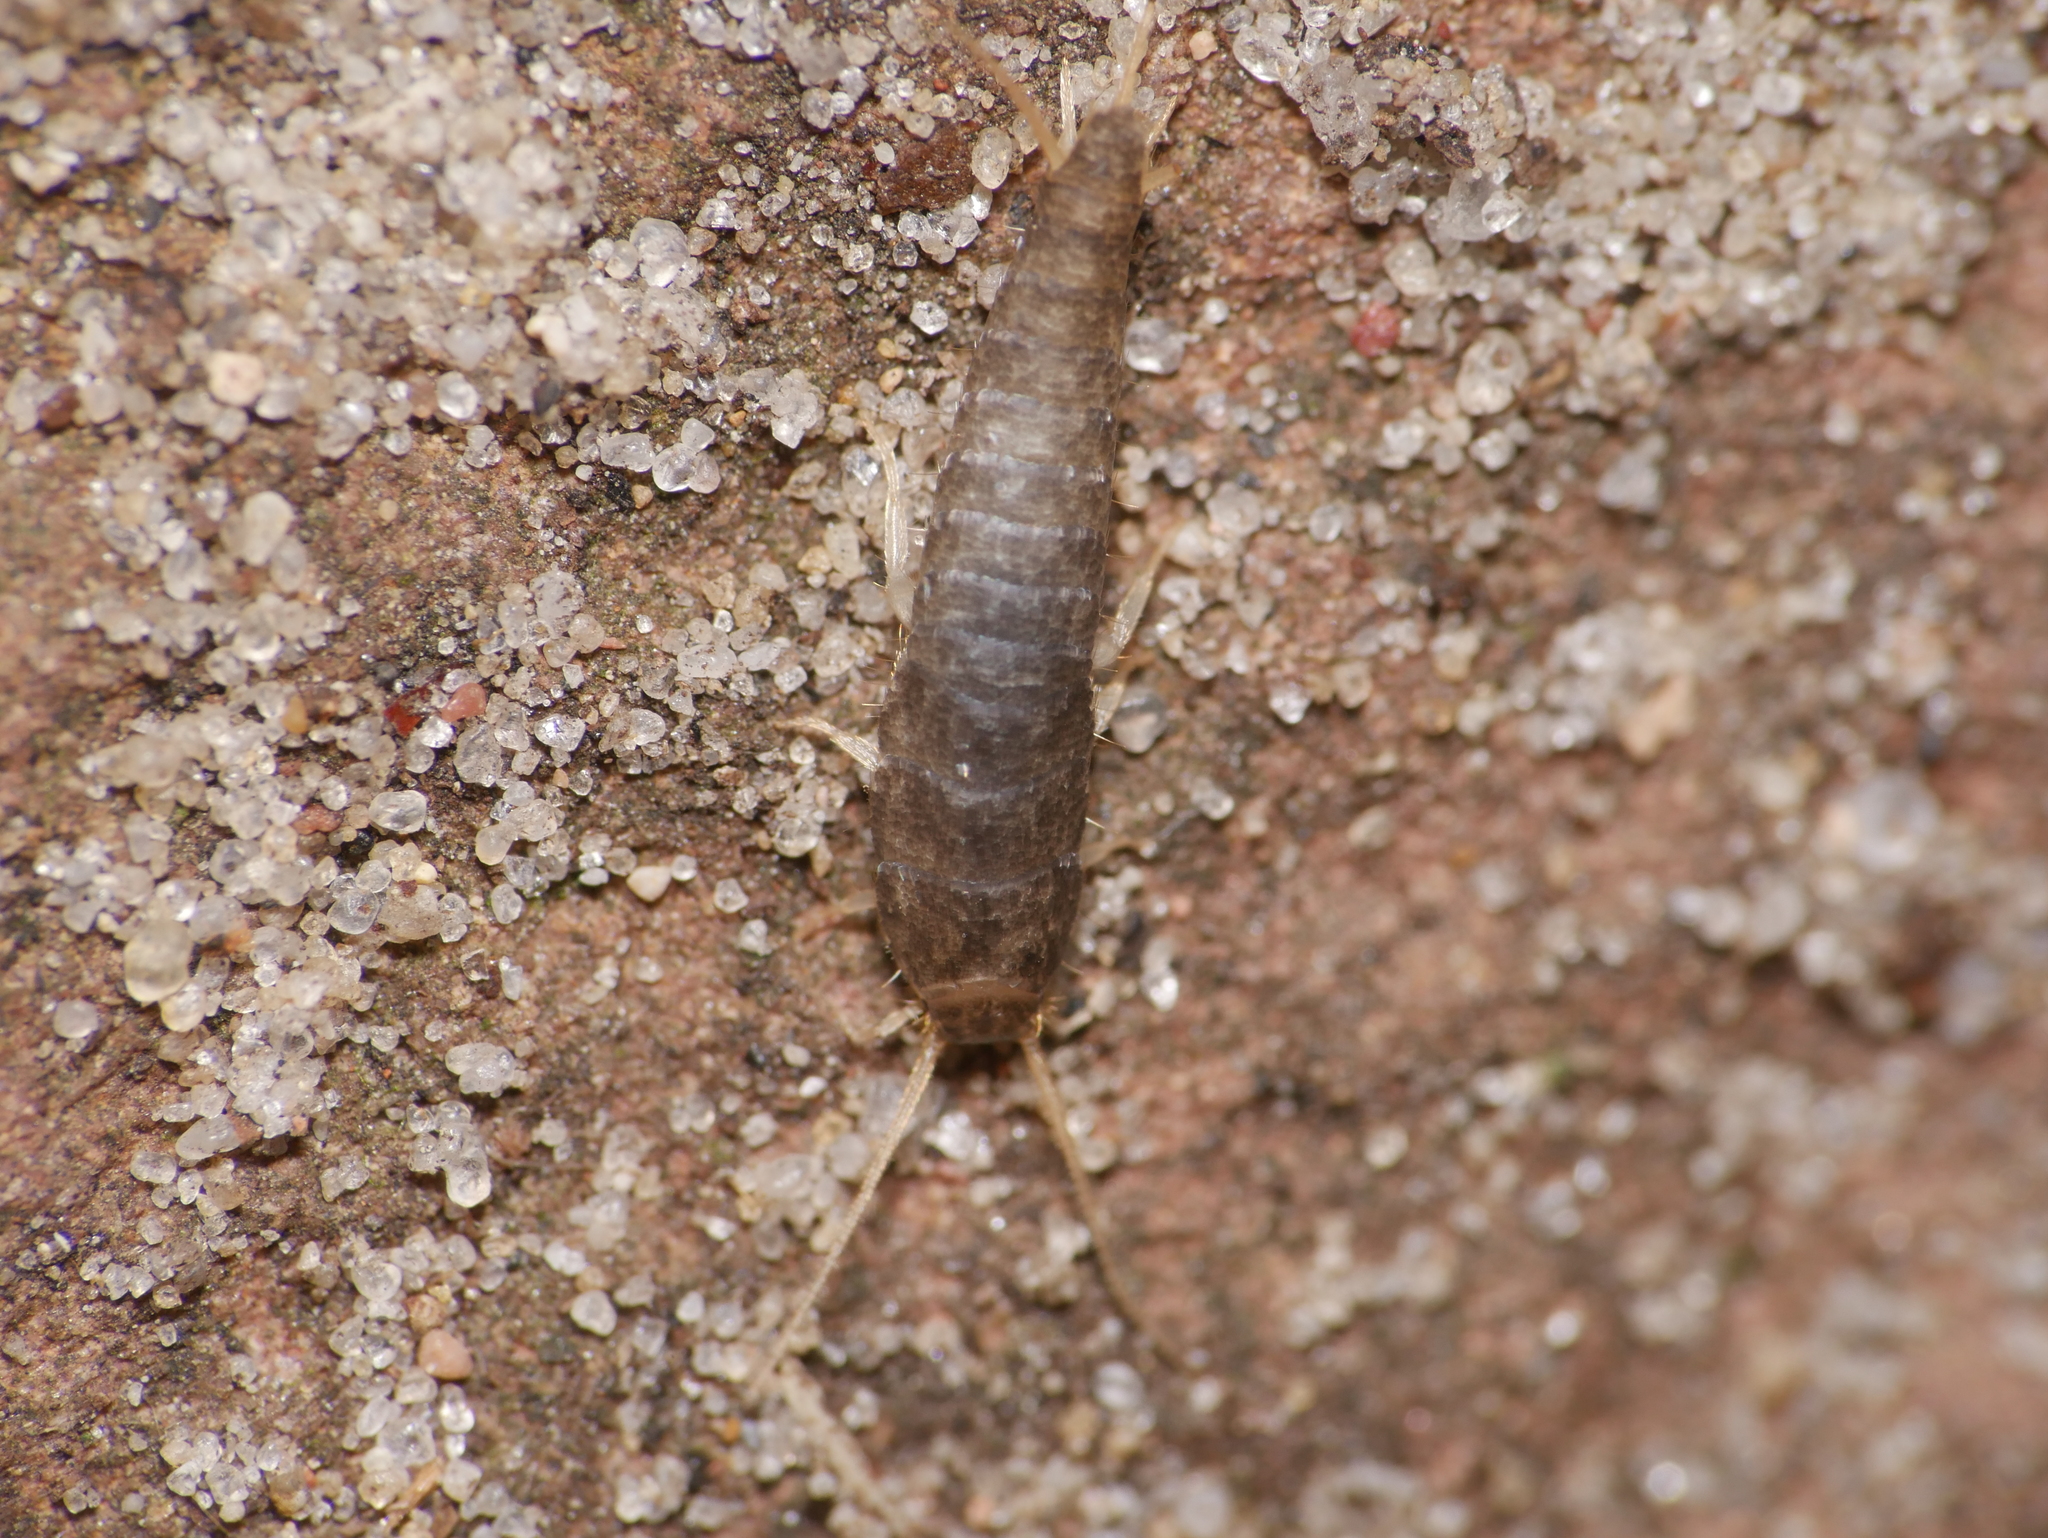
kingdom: Animalia
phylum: Arthropoda
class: Insecta
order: Zygentoma
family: Lepismatidae
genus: Lepisma
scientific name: Lepisma saccharinum
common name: Silverfish
